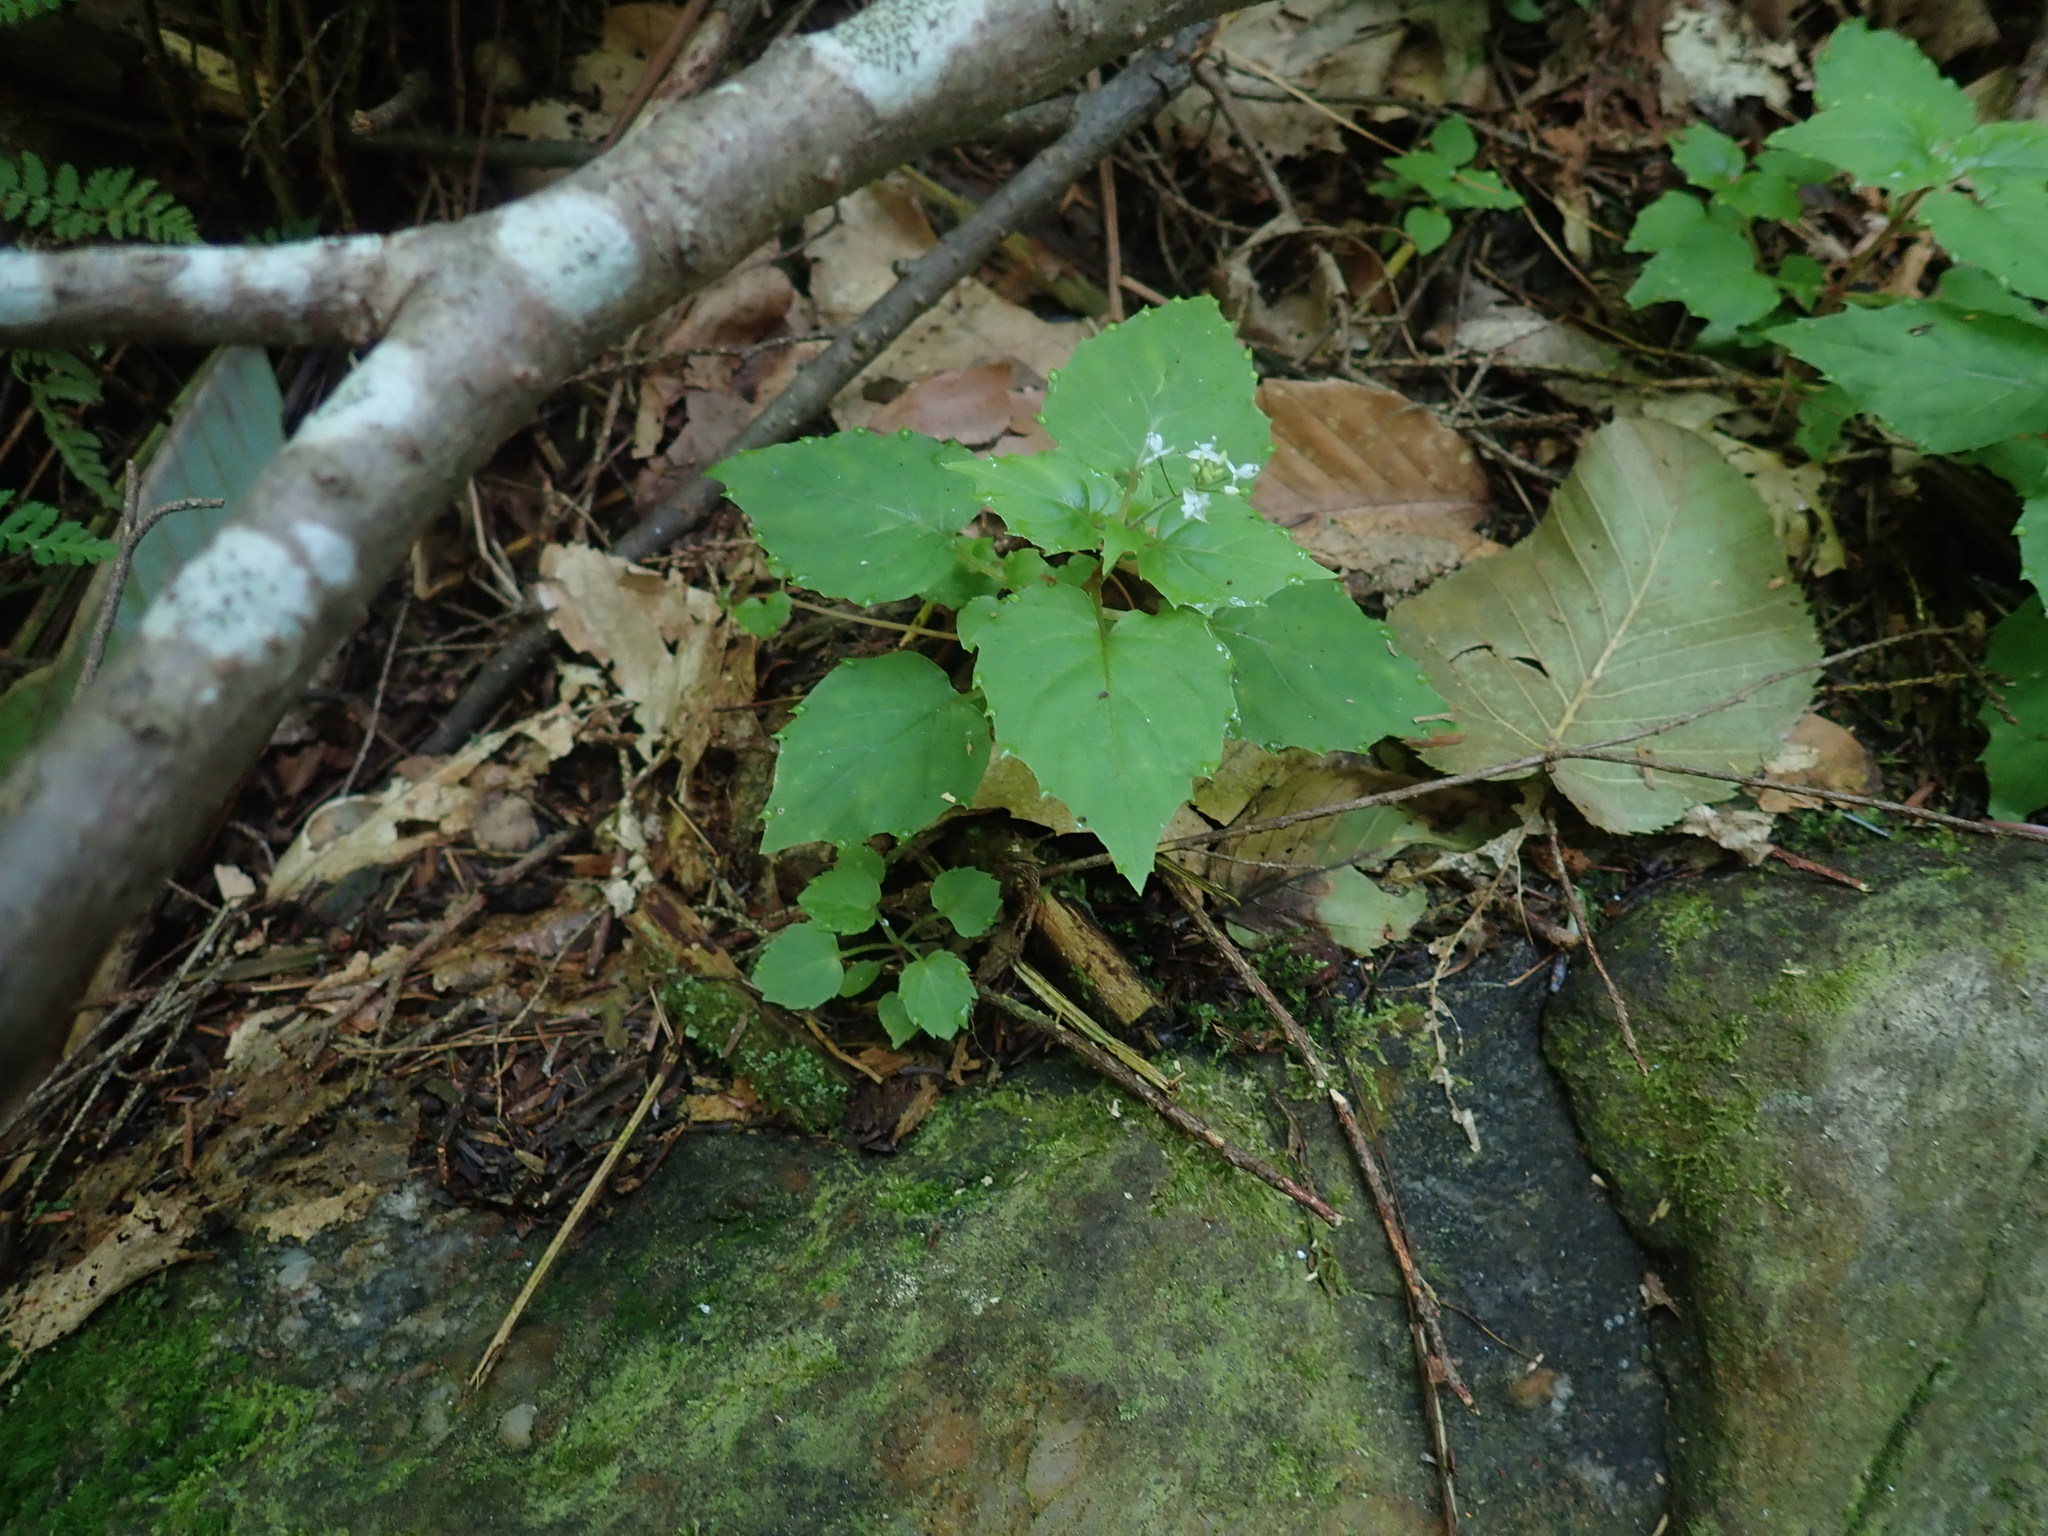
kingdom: Plantae
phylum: Tracheophyta
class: Magnoliopsida
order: Myrtales
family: Onagraceae
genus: Circaea
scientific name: Circaea alpina
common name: Alpine enchanter's-nightshade
